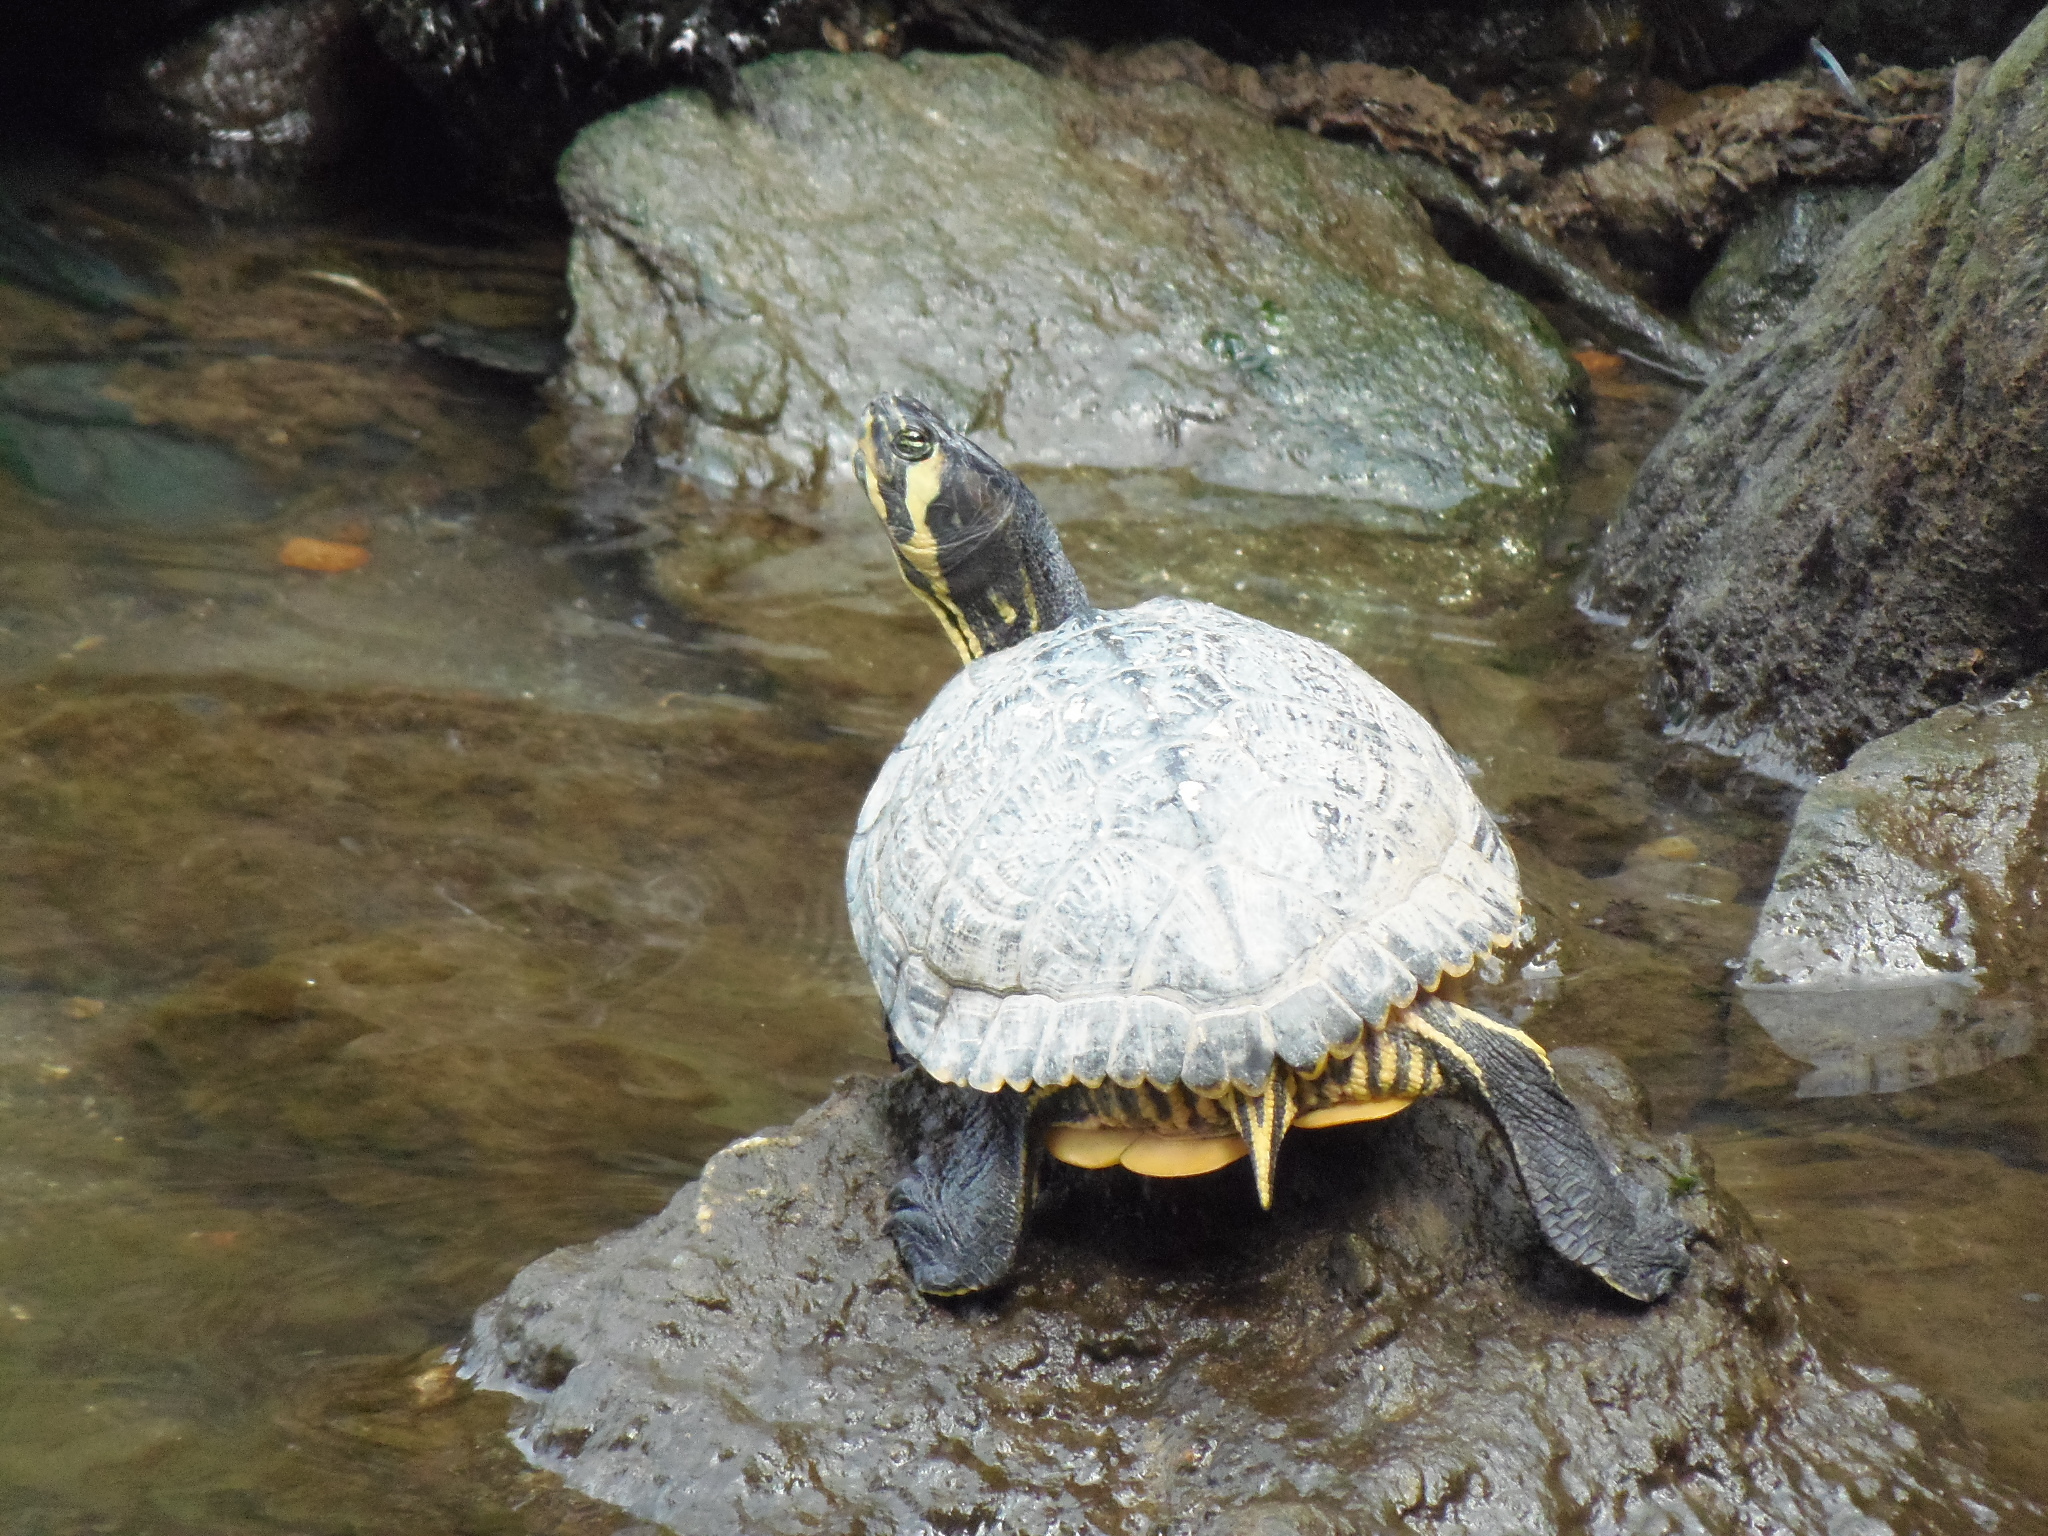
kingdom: Animalia
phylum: Chordata
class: Testudines
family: Emydidae
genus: Trachemys
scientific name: Trachemys scripta
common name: Slider
